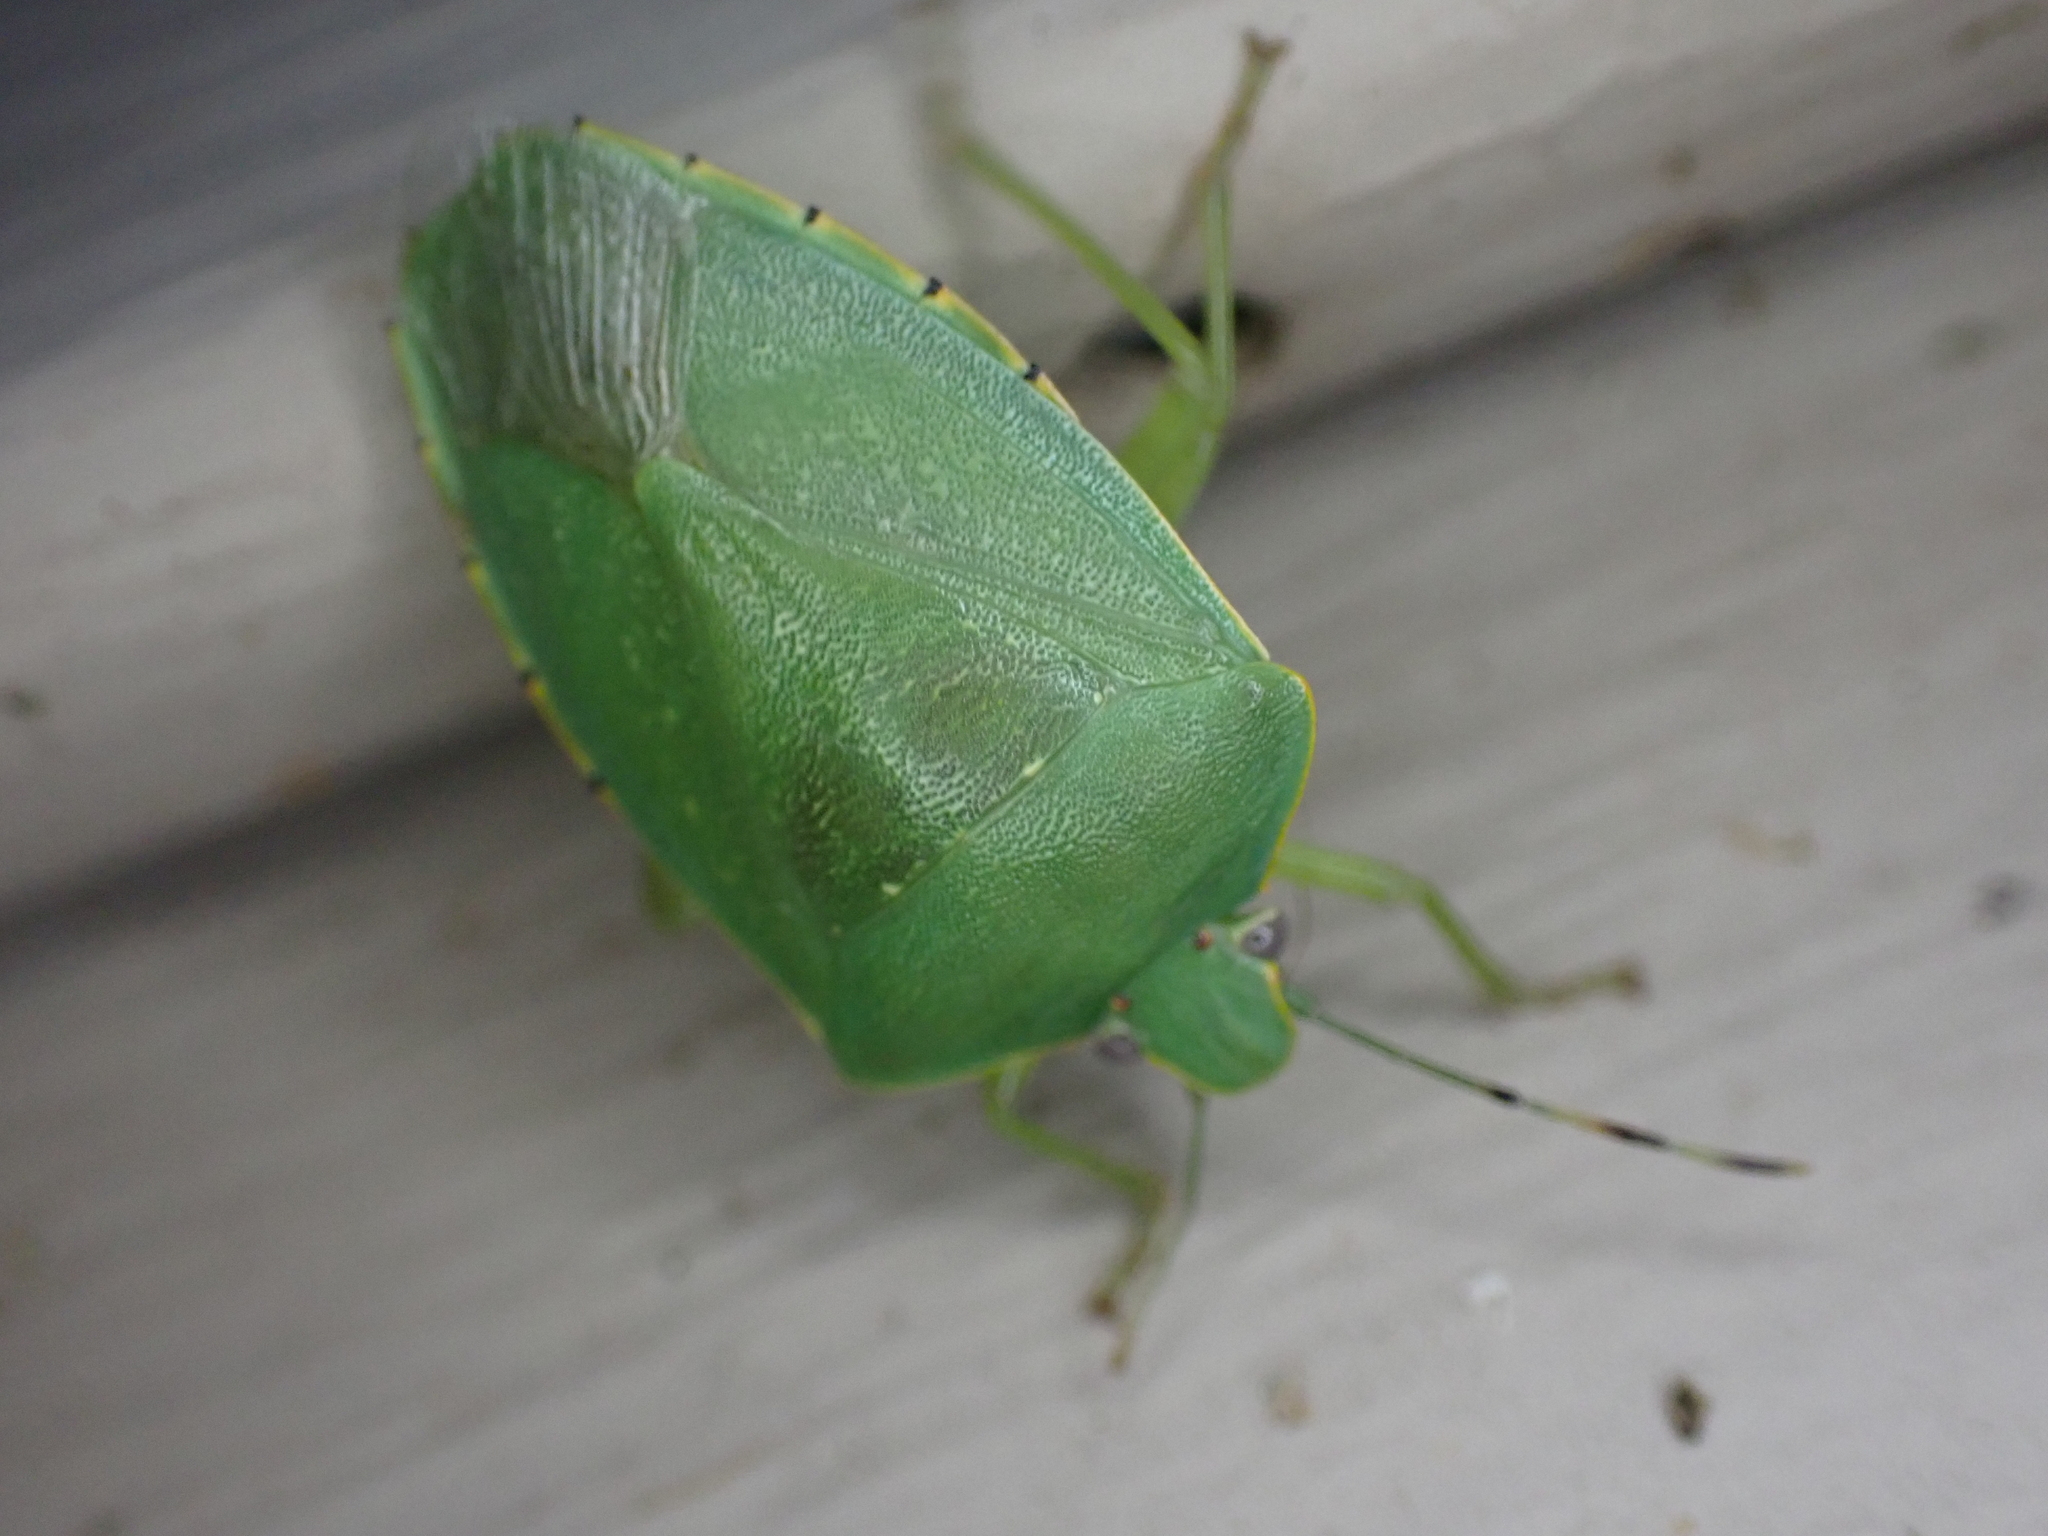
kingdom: Animalia
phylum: Arthropoda
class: Insecta
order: Hemiptera
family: Pentatomidae
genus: Chinavia
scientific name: Chinavia hilaris
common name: Green stink bug
